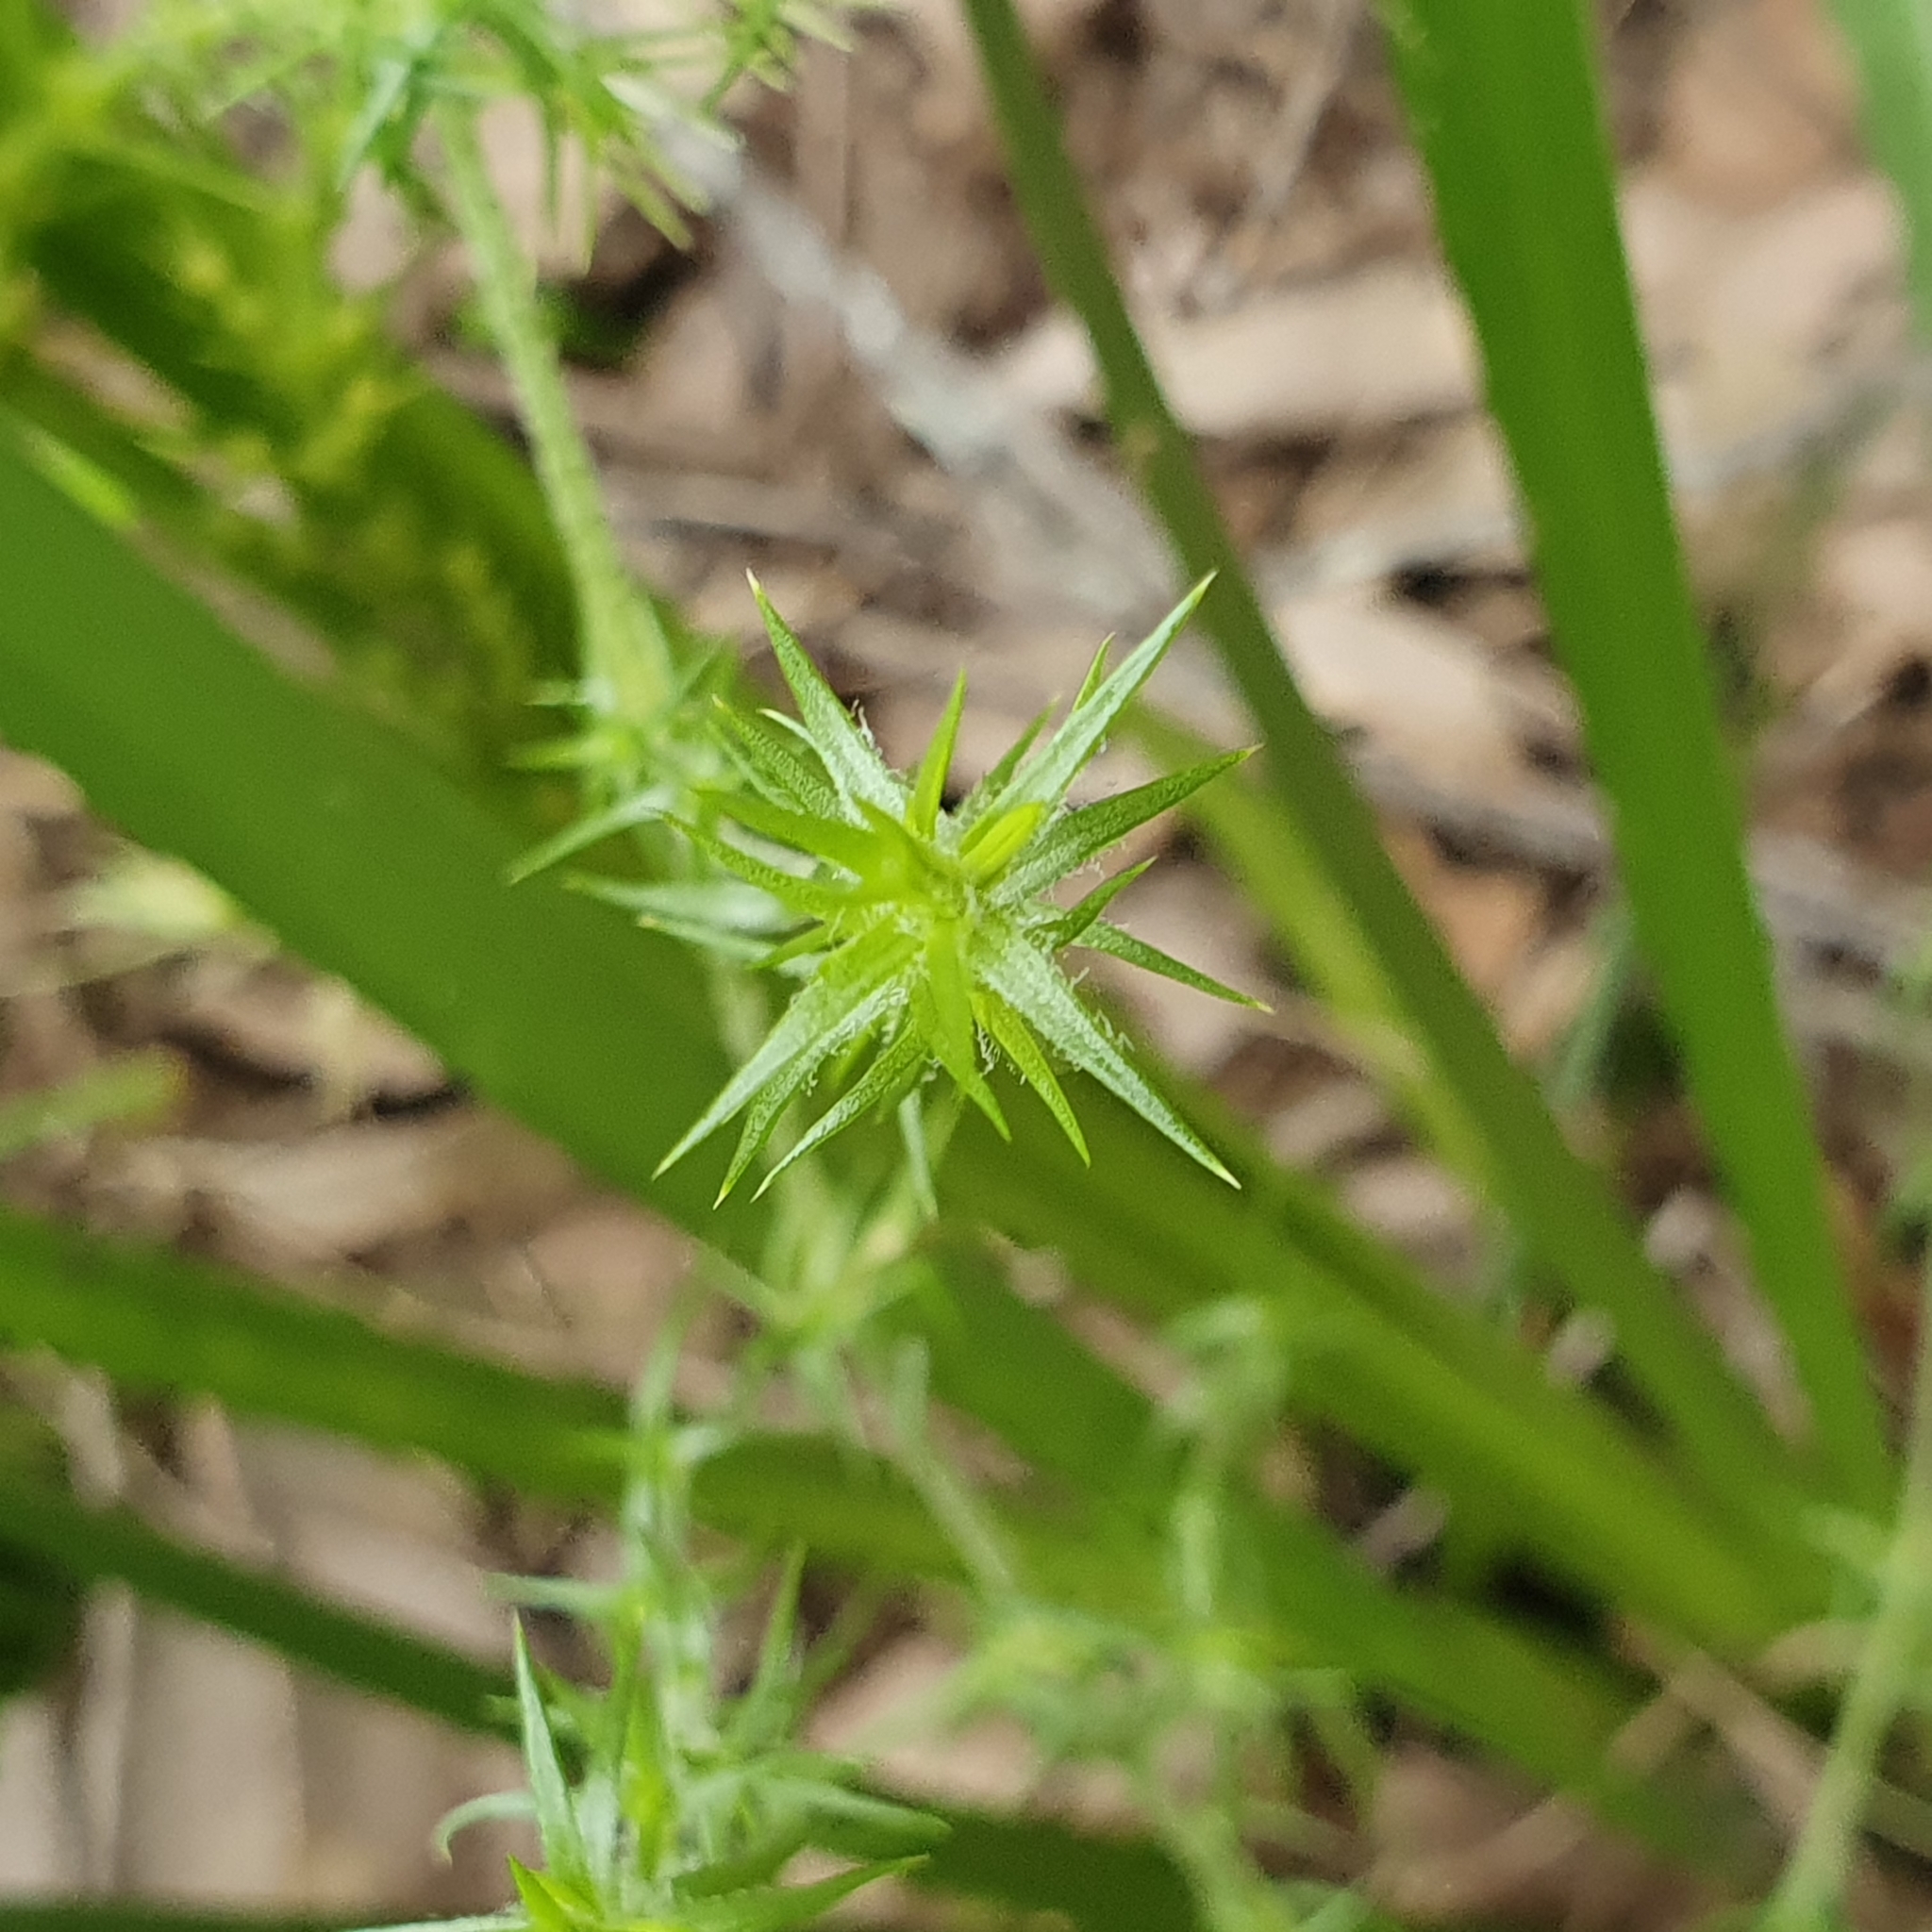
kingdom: Plantae
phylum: Tracheophyta
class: Magnoliopsida
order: Caryophyllales
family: Caryophyllaceae
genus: Stellaria
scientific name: Stellaria pungens
